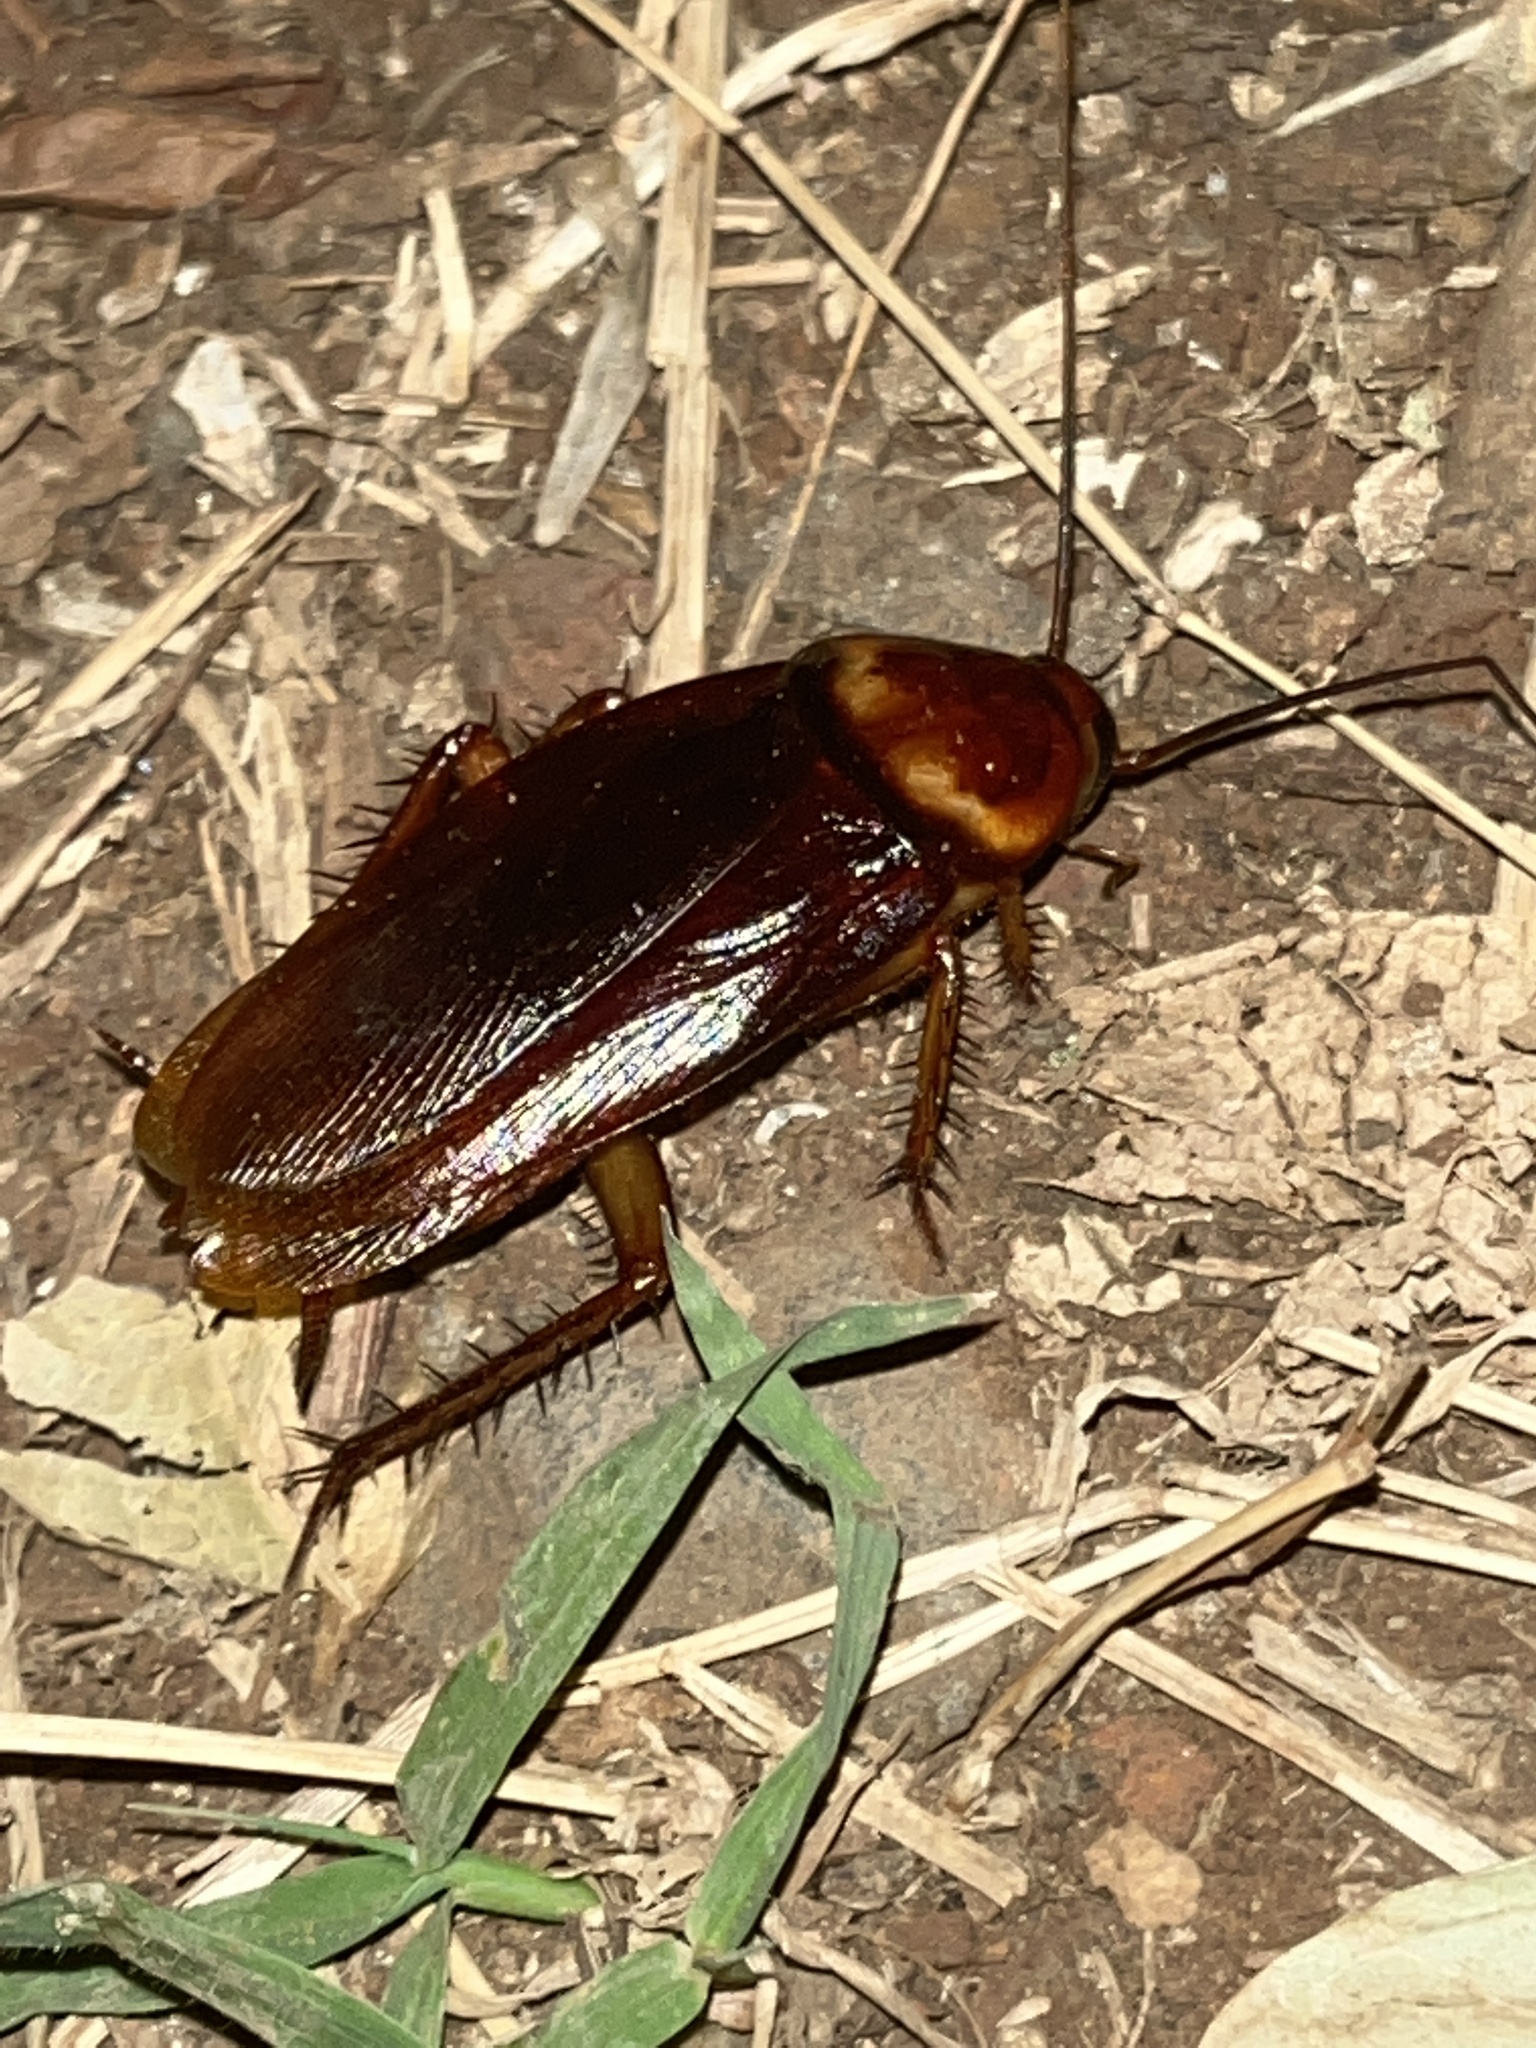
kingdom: Animalia
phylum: Arthropoda
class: Insecta
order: Blattodea
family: Blattidae
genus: Periplaneta
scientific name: Periplaneta americana
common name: American cockroach
